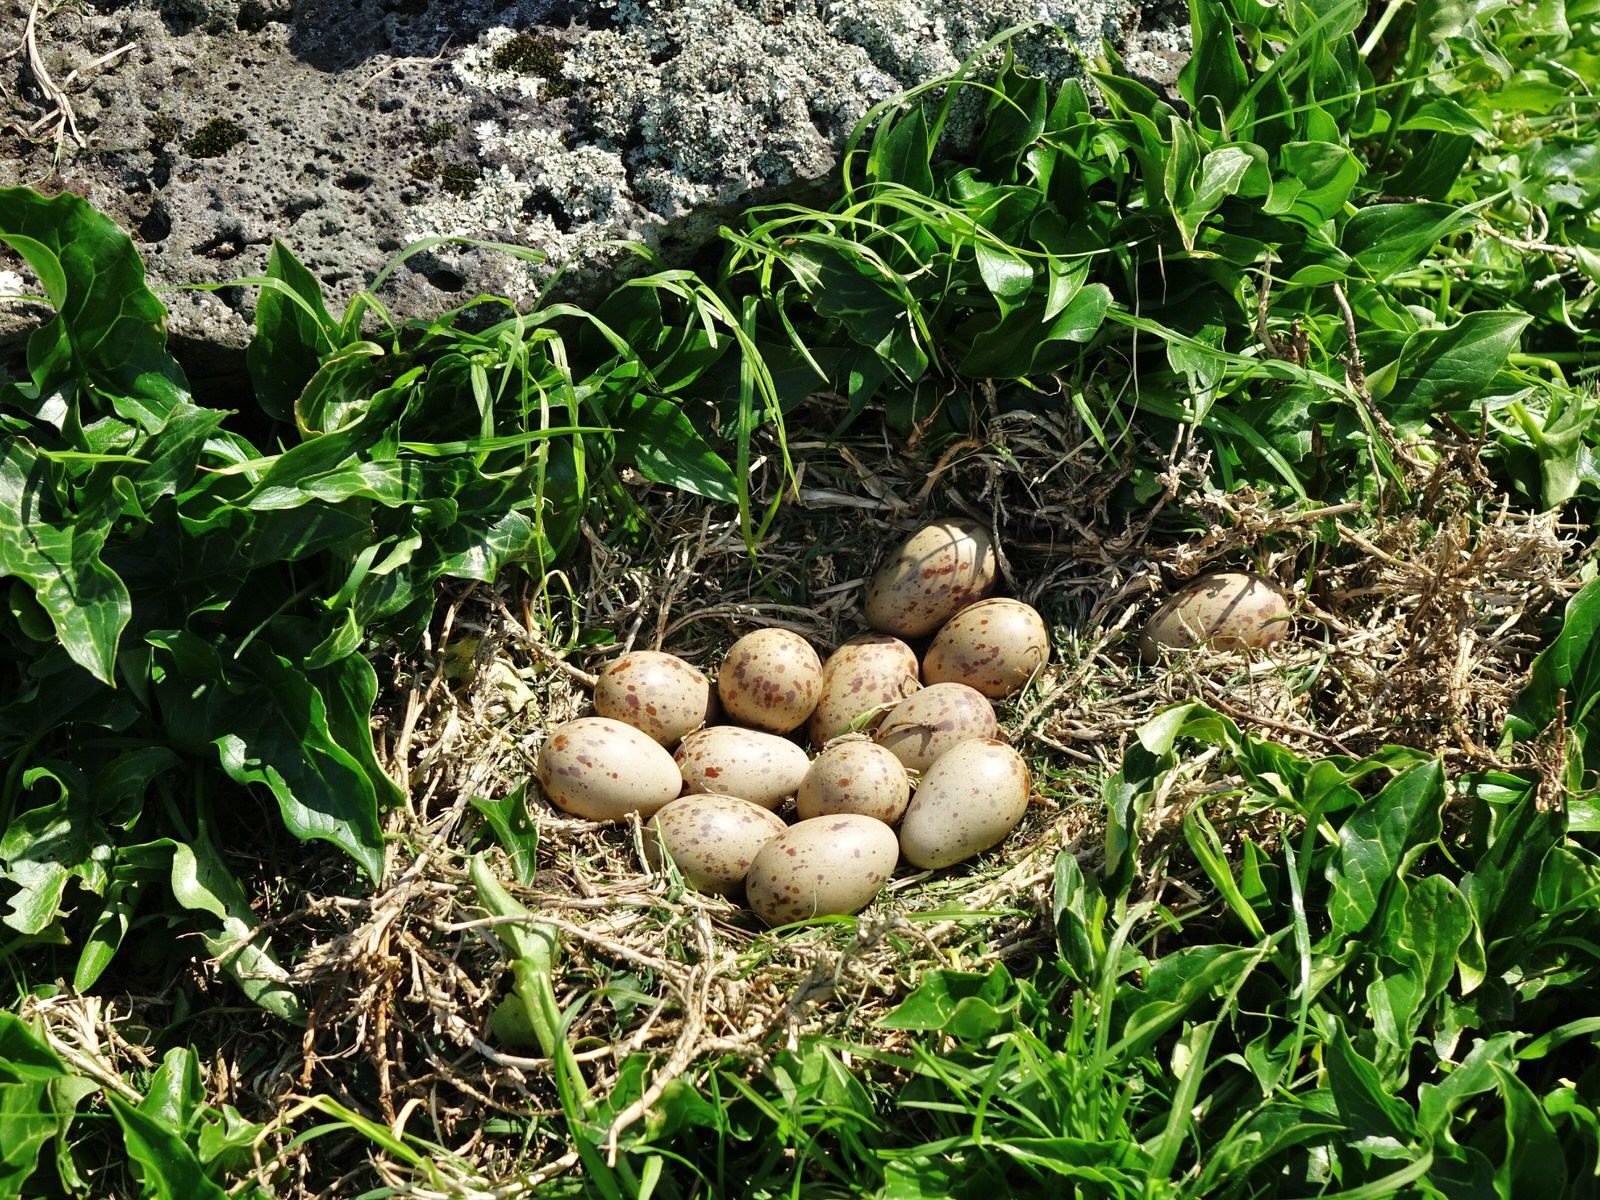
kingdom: Animalia
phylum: Chordata
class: Aves
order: Gruiformes
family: Rallidae
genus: Porphyrio
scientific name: Porphyrio melanotus
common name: Australasian swamphen
